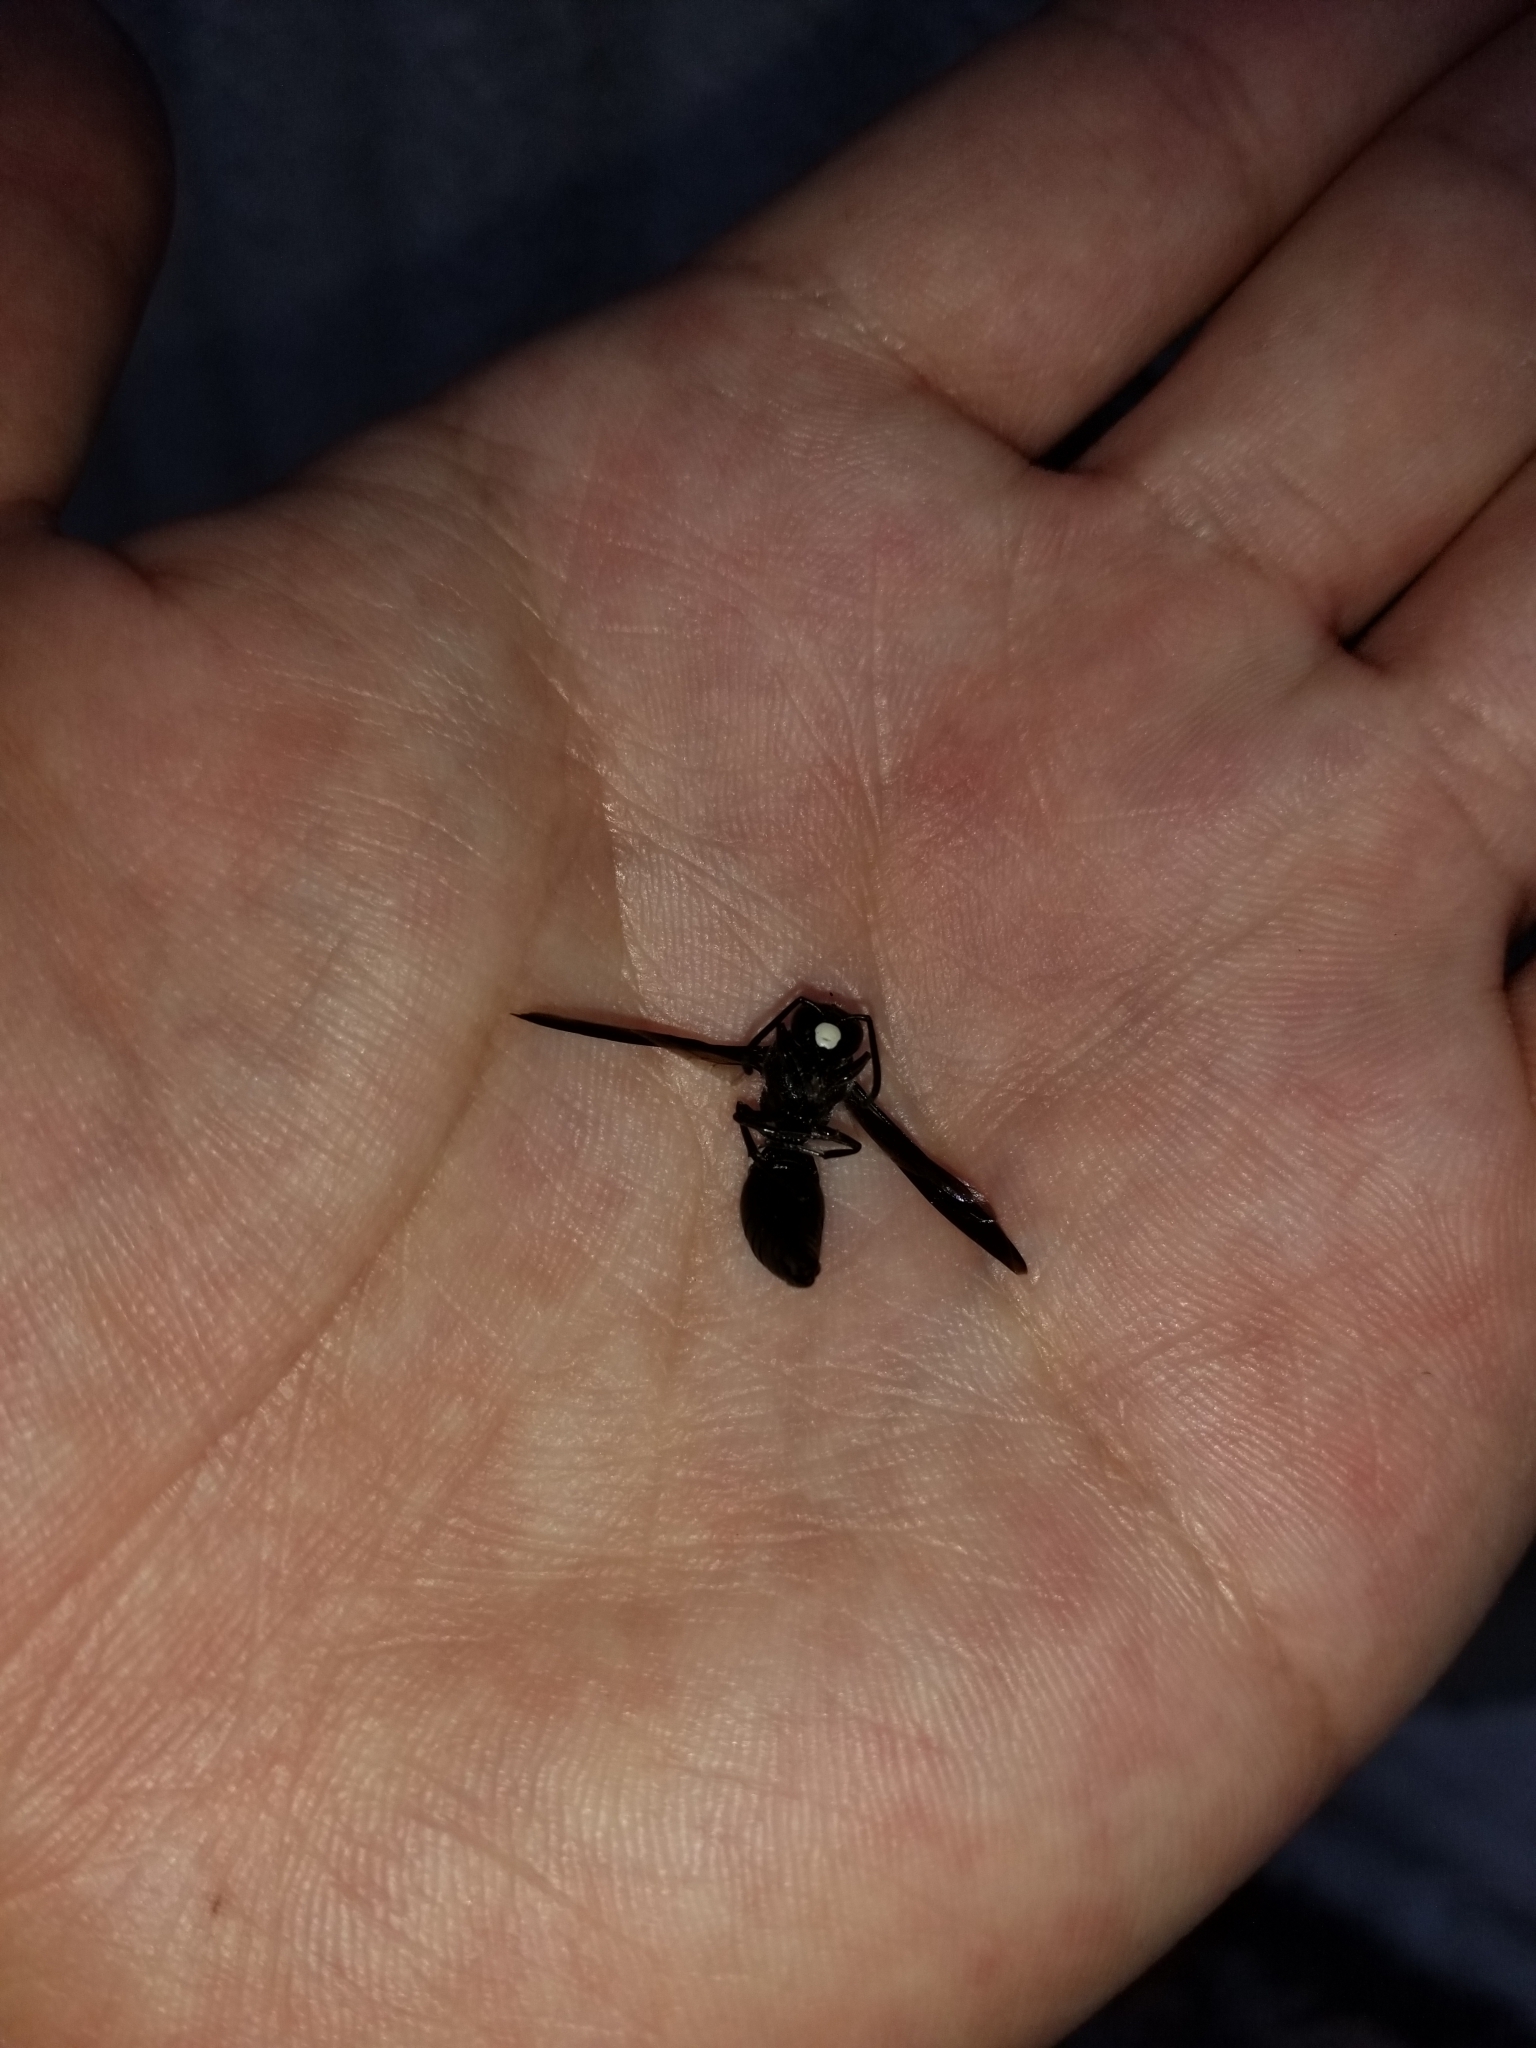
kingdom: Animalia
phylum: Arthropoda
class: Insecta
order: Hymenoptera
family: Eumenidae
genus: Monobia
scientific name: Monobia quadridens
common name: Four-toothed mason wasp
